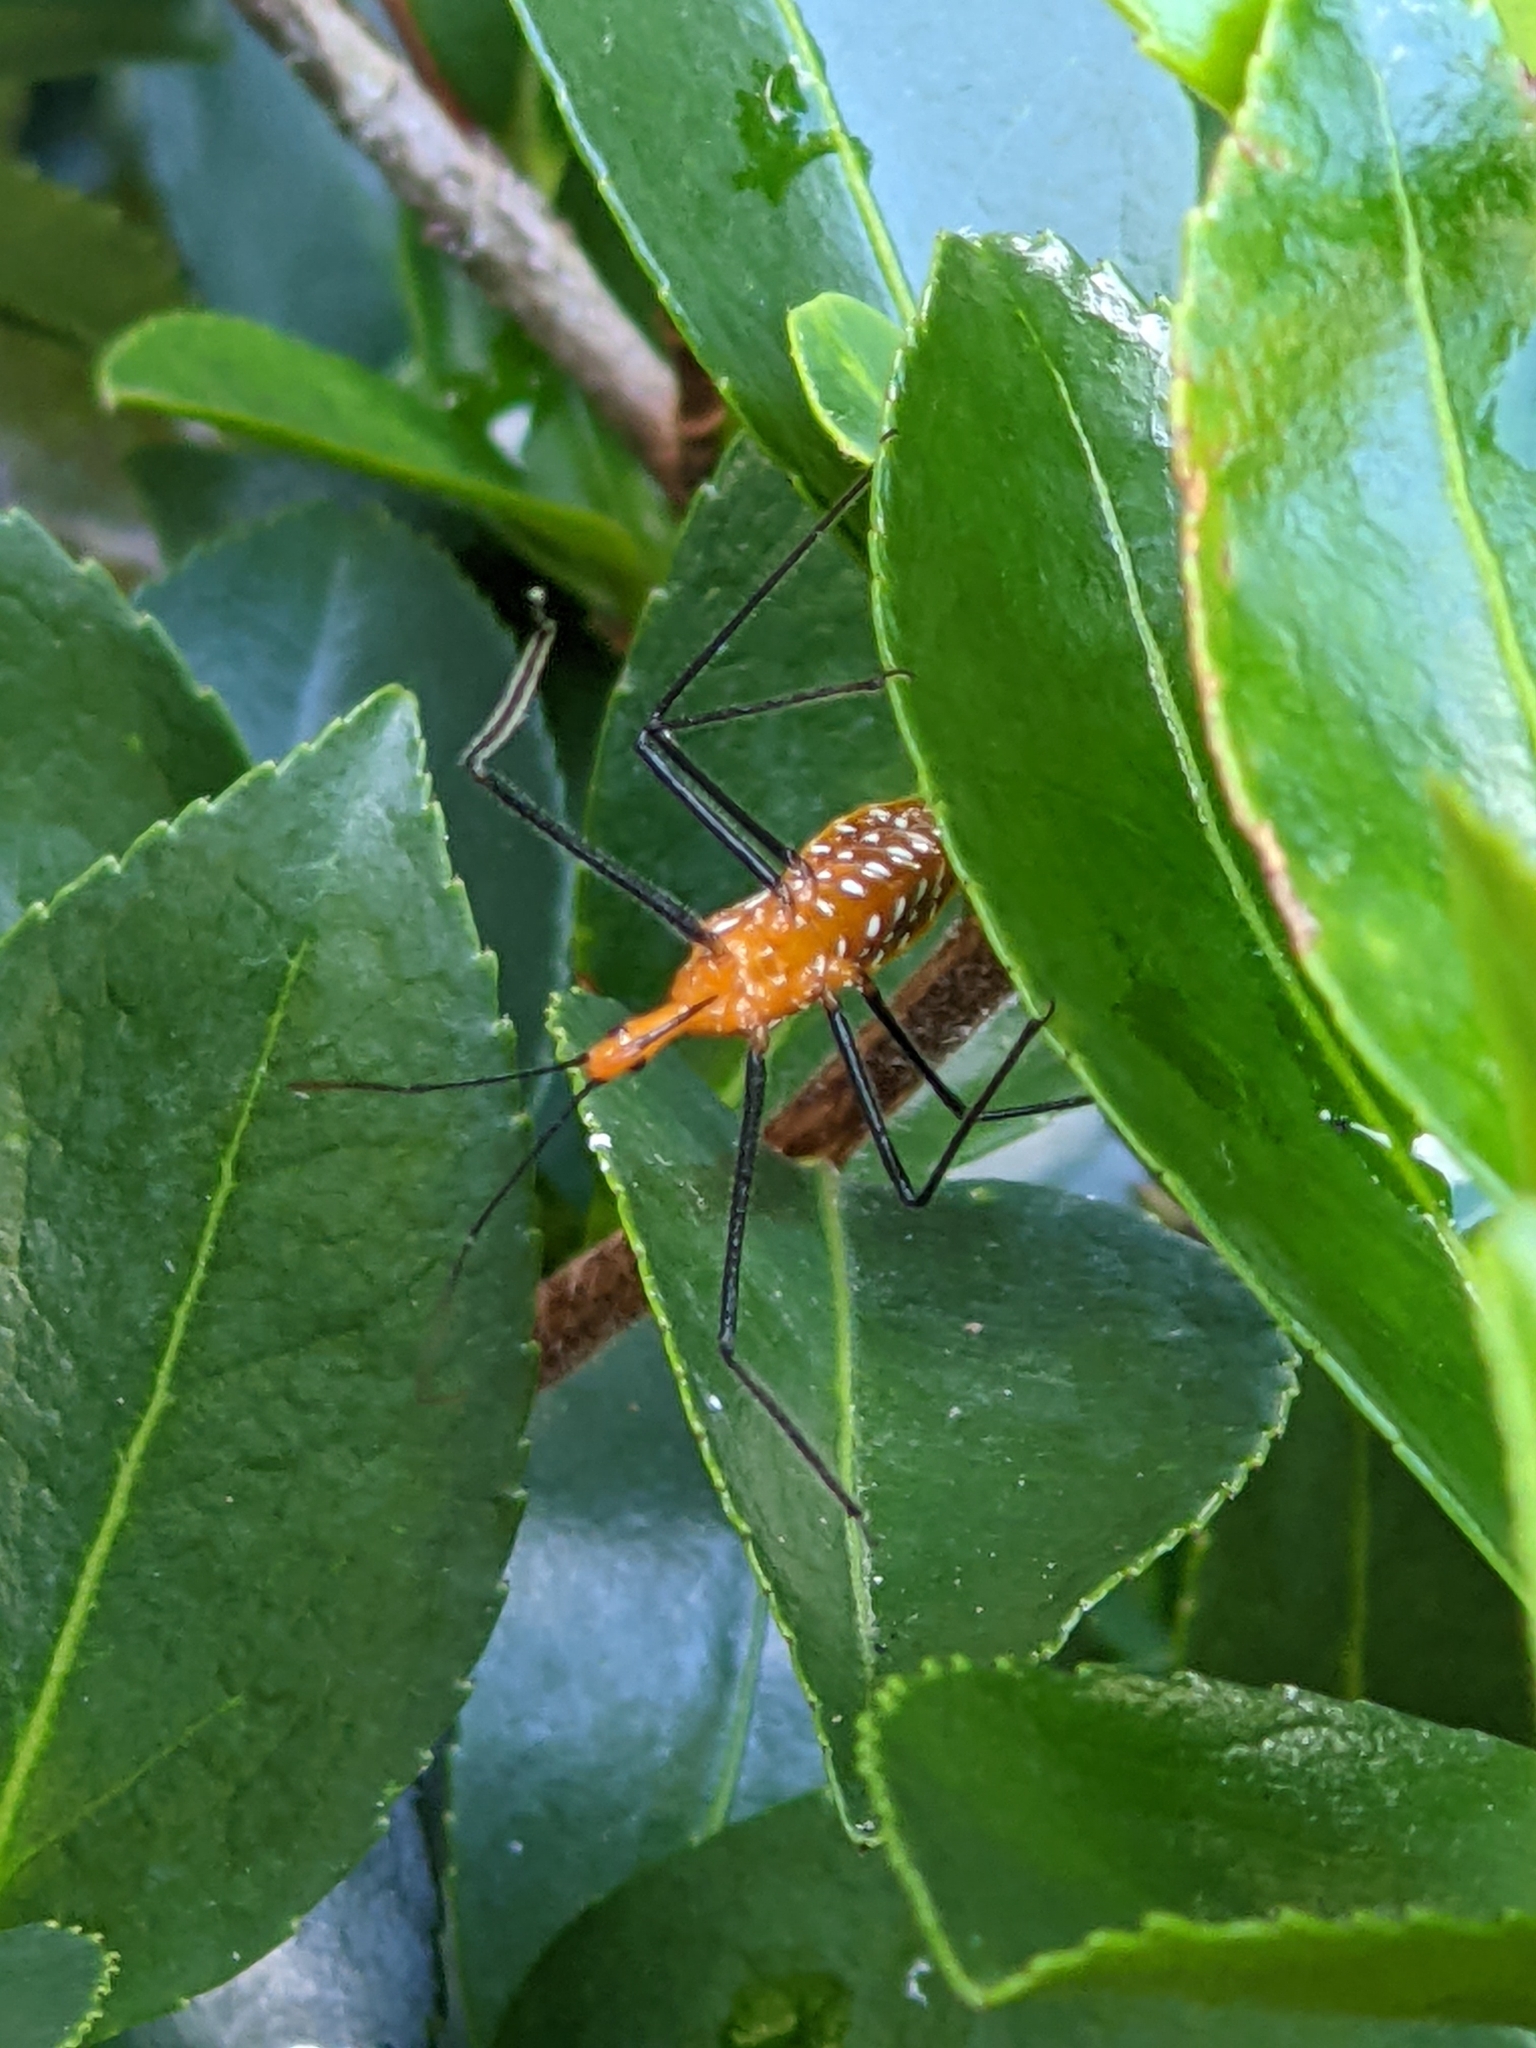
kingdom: Animalia
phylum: Arthropoda
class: Insecta
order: Hemiptera
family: Reduviidae
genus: Zelus
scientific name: Zelus longipes
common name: Milkweed assassin bug
